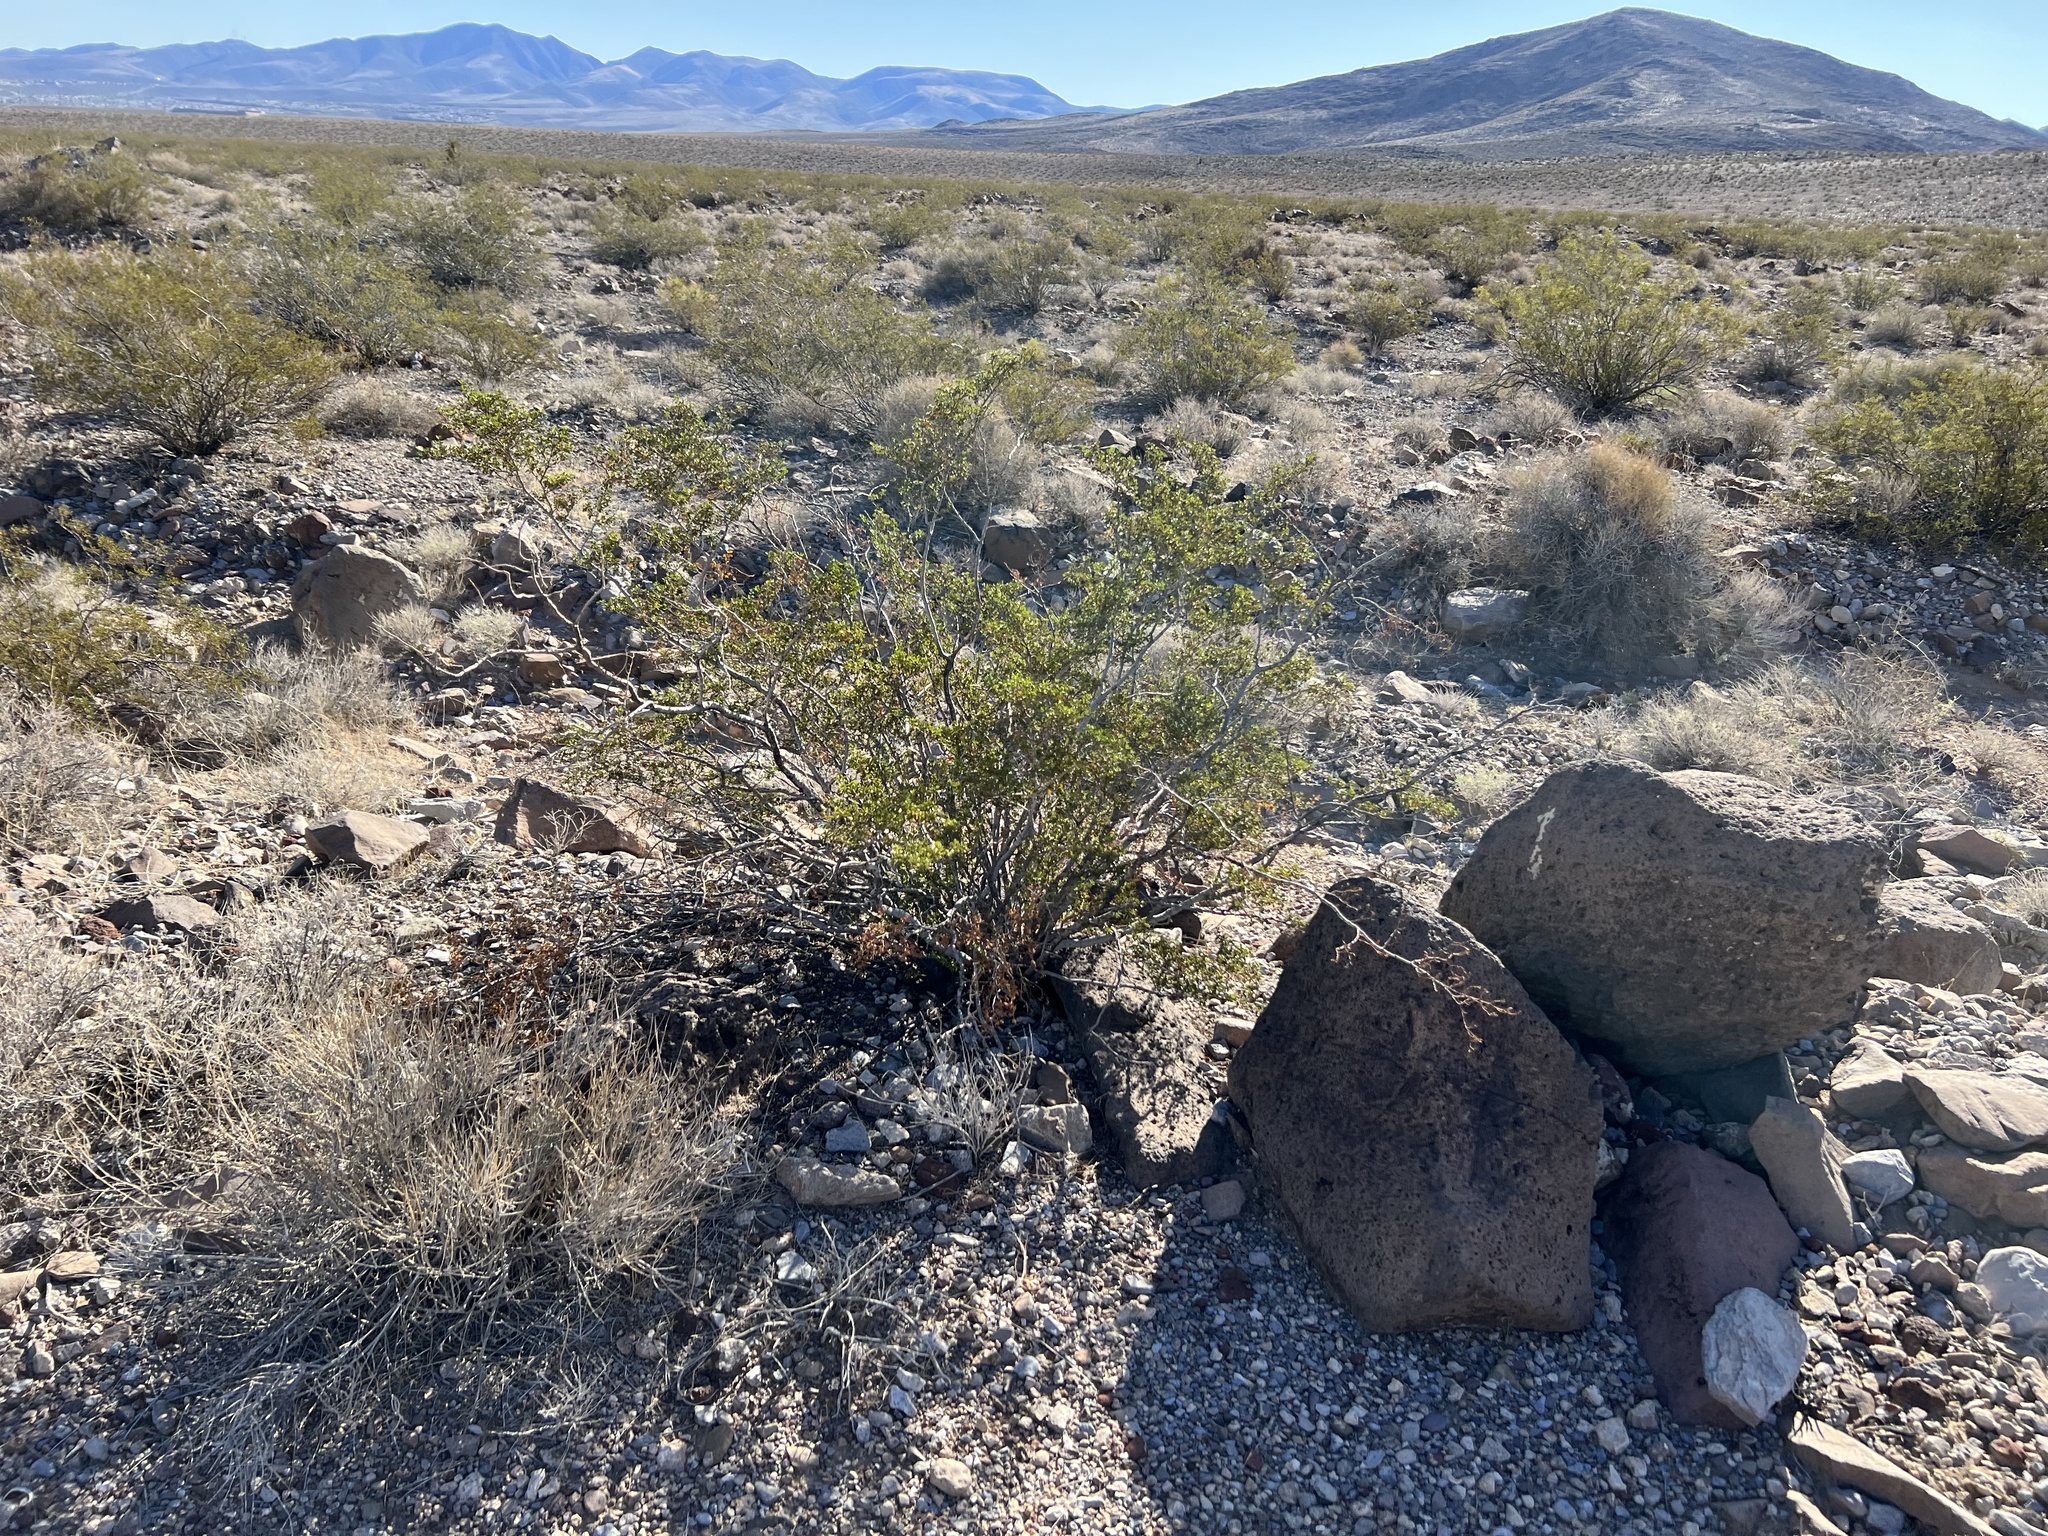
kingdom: Plantae
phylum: Tracheophyta
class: Magnoliopsida
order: Zygophyllales
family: Zygophyllaceae
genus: Larrea
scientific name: Larrea tridentata
